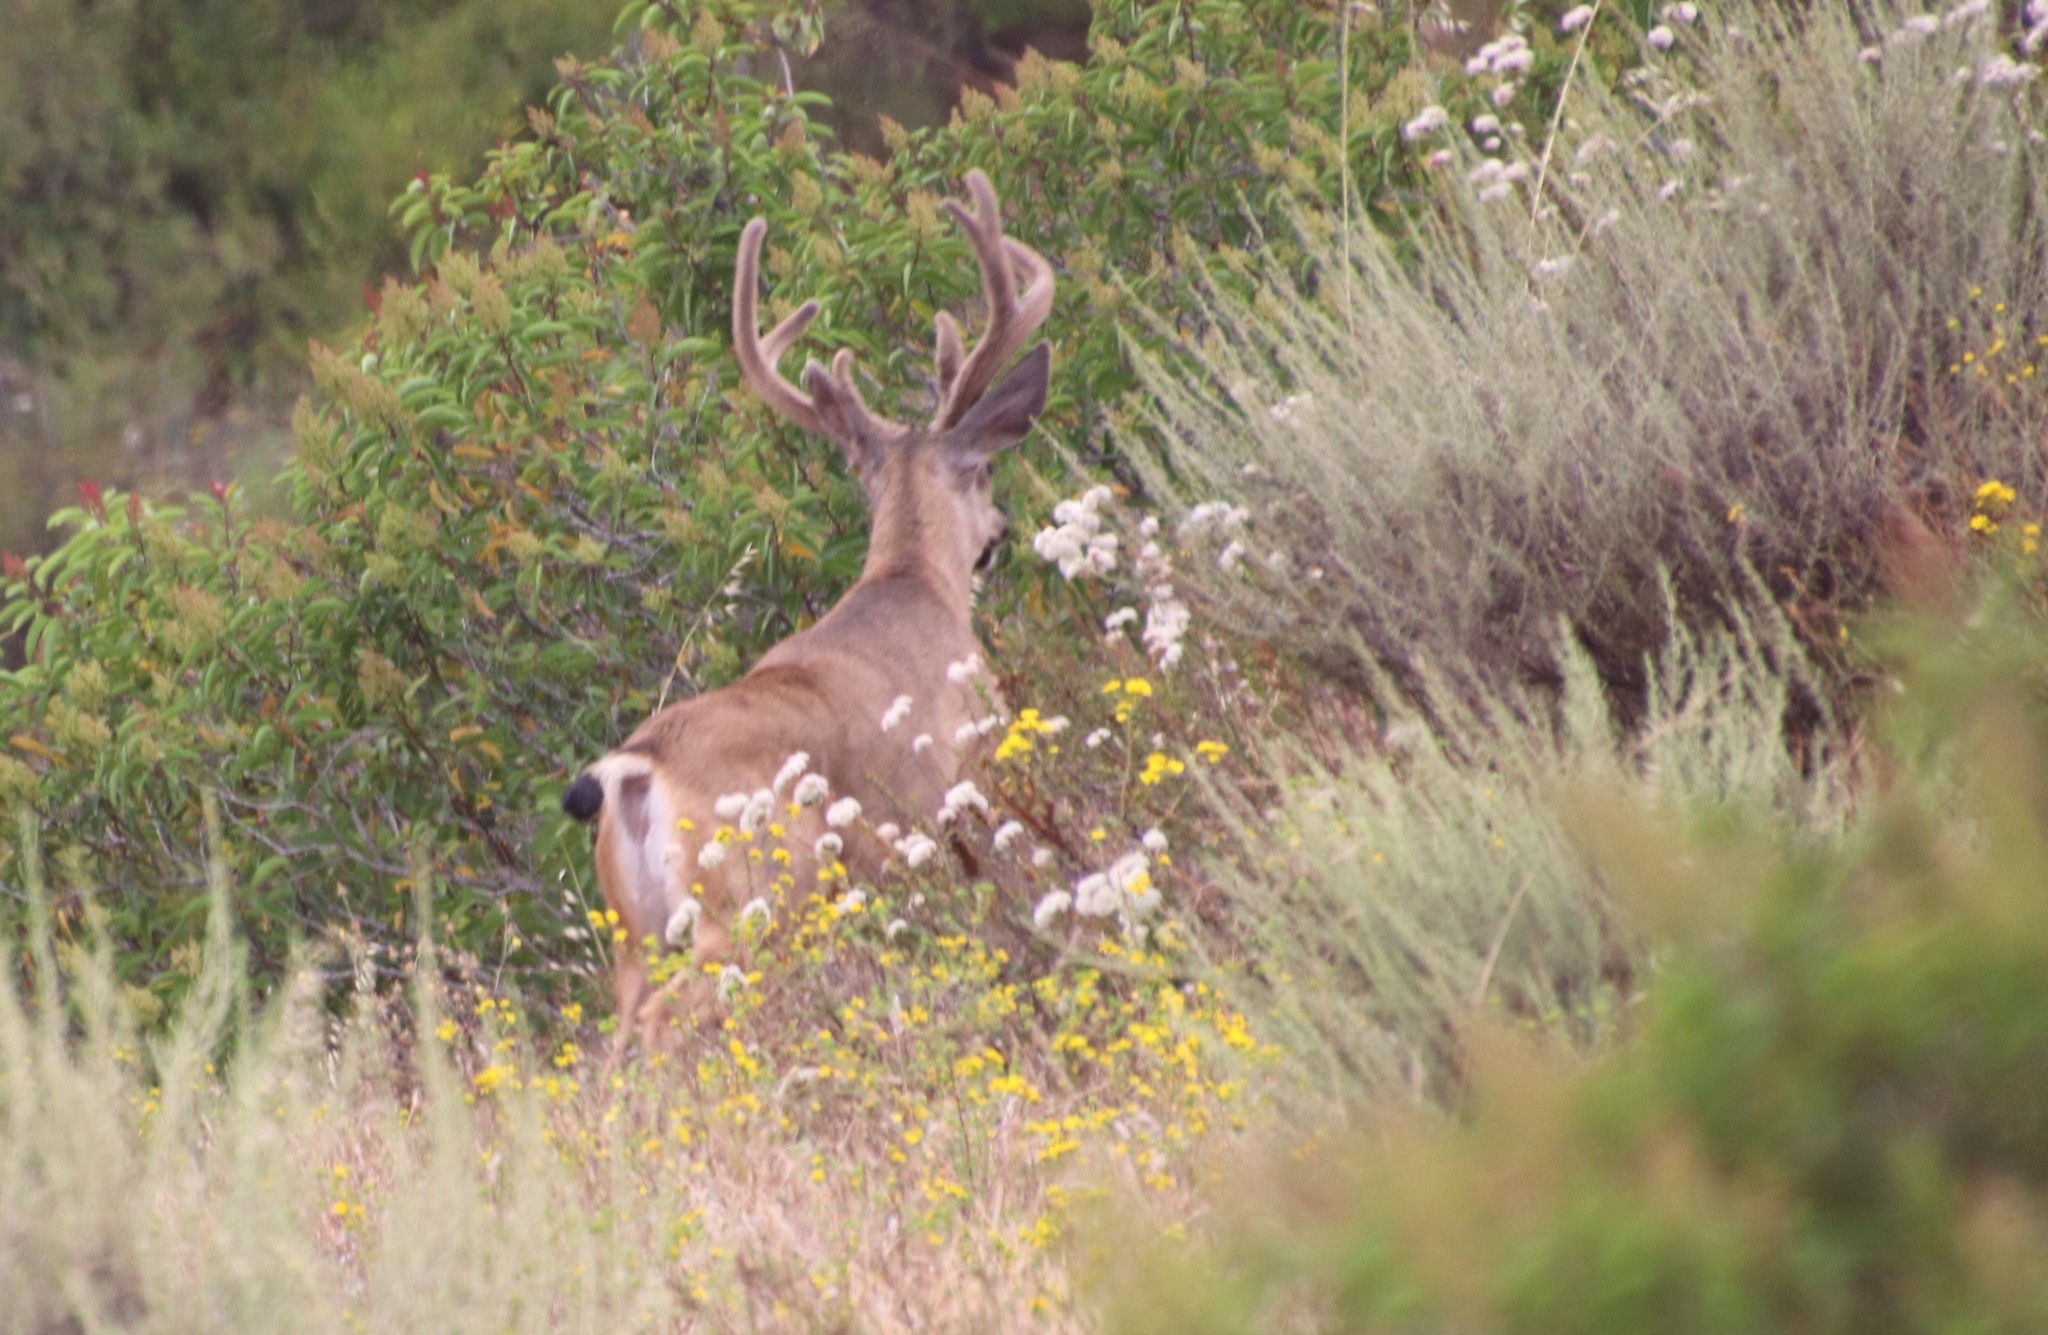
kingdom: Animalia
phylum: Chordata
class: Mammalia
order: Artiodactyla
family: Cervidae
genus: Odocoileus
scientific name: Odocoileus hemionus
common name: Mule deer
